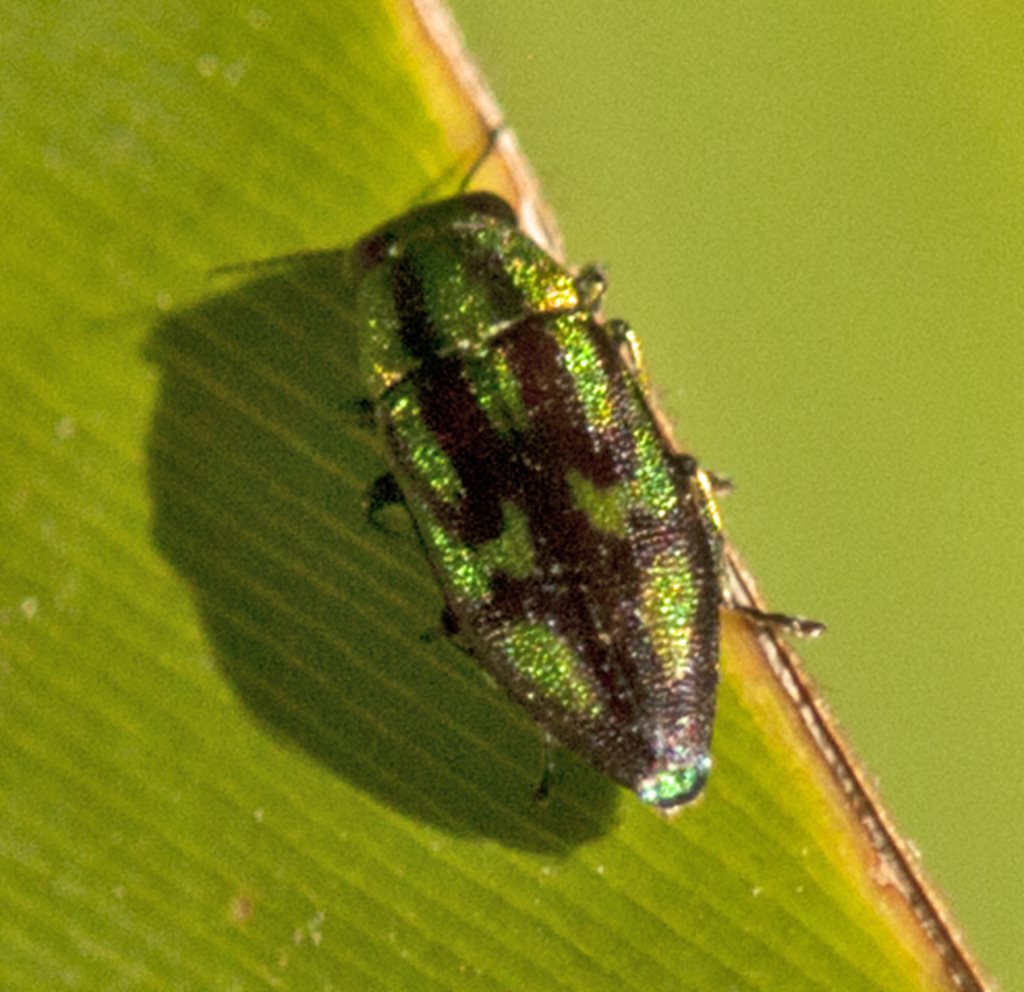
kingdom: Animalia
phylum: Arthropoda
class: Insecta
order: Coleoptera
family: Buprestidae
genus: Melobasis
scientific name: Melobasis purpurascens
